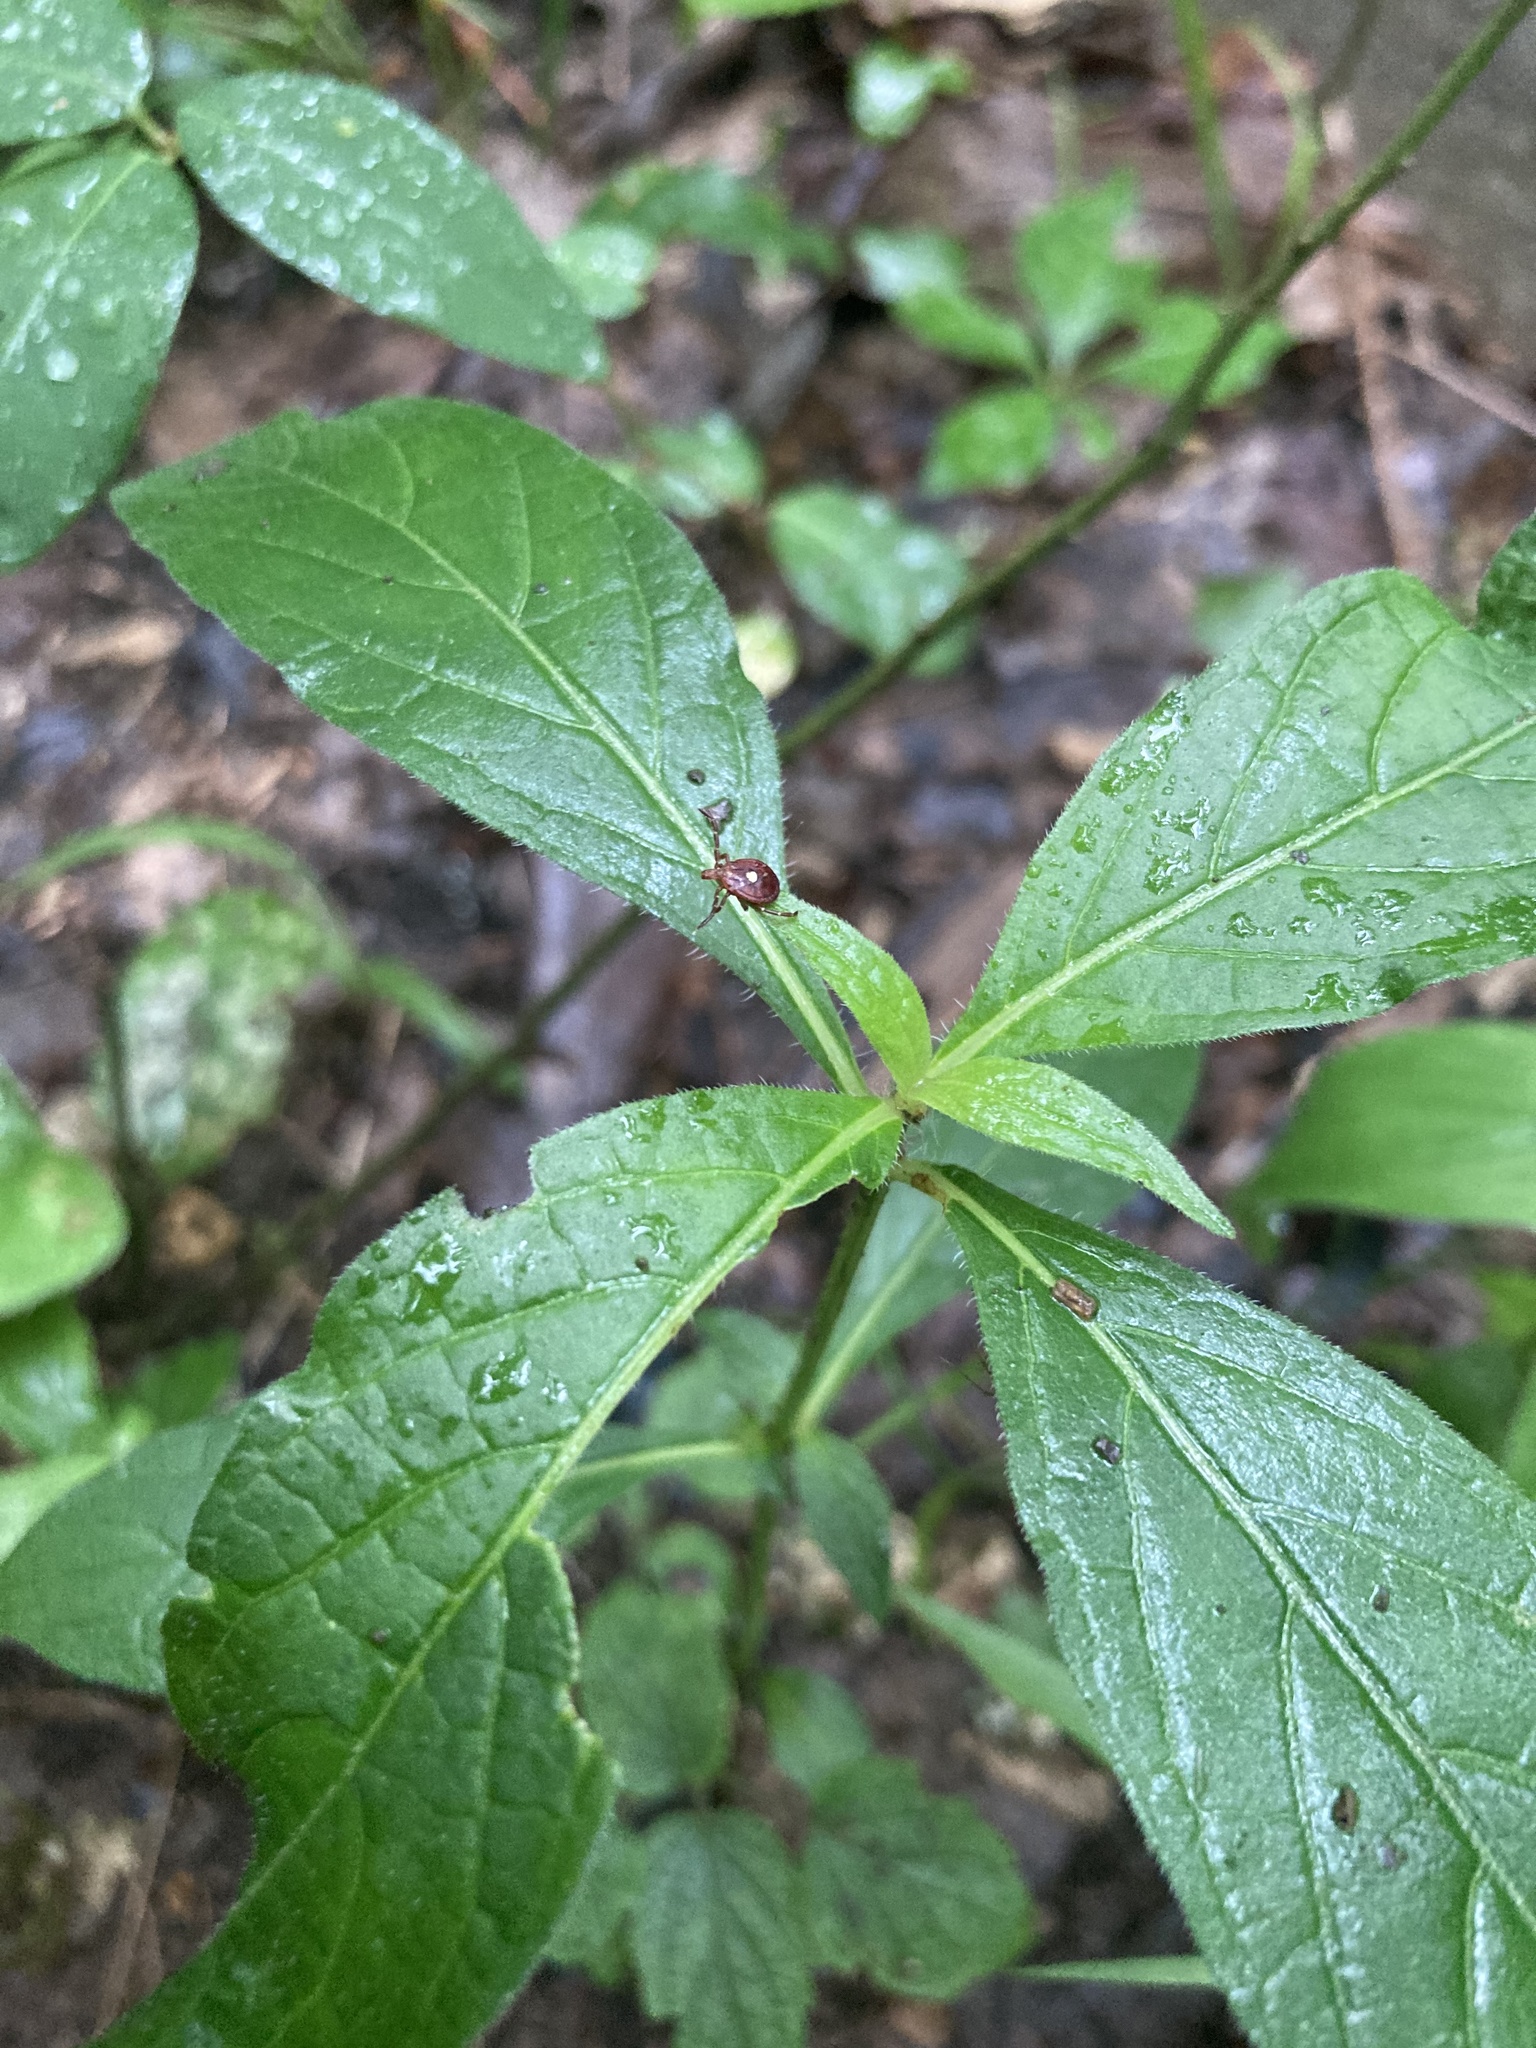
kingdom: Animalia
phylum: Arthropoda
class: Arachnida
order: Ixodida
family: Ixodidae
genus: Amblyomma
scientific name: Amblyomma americanum
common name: Lone star tick
